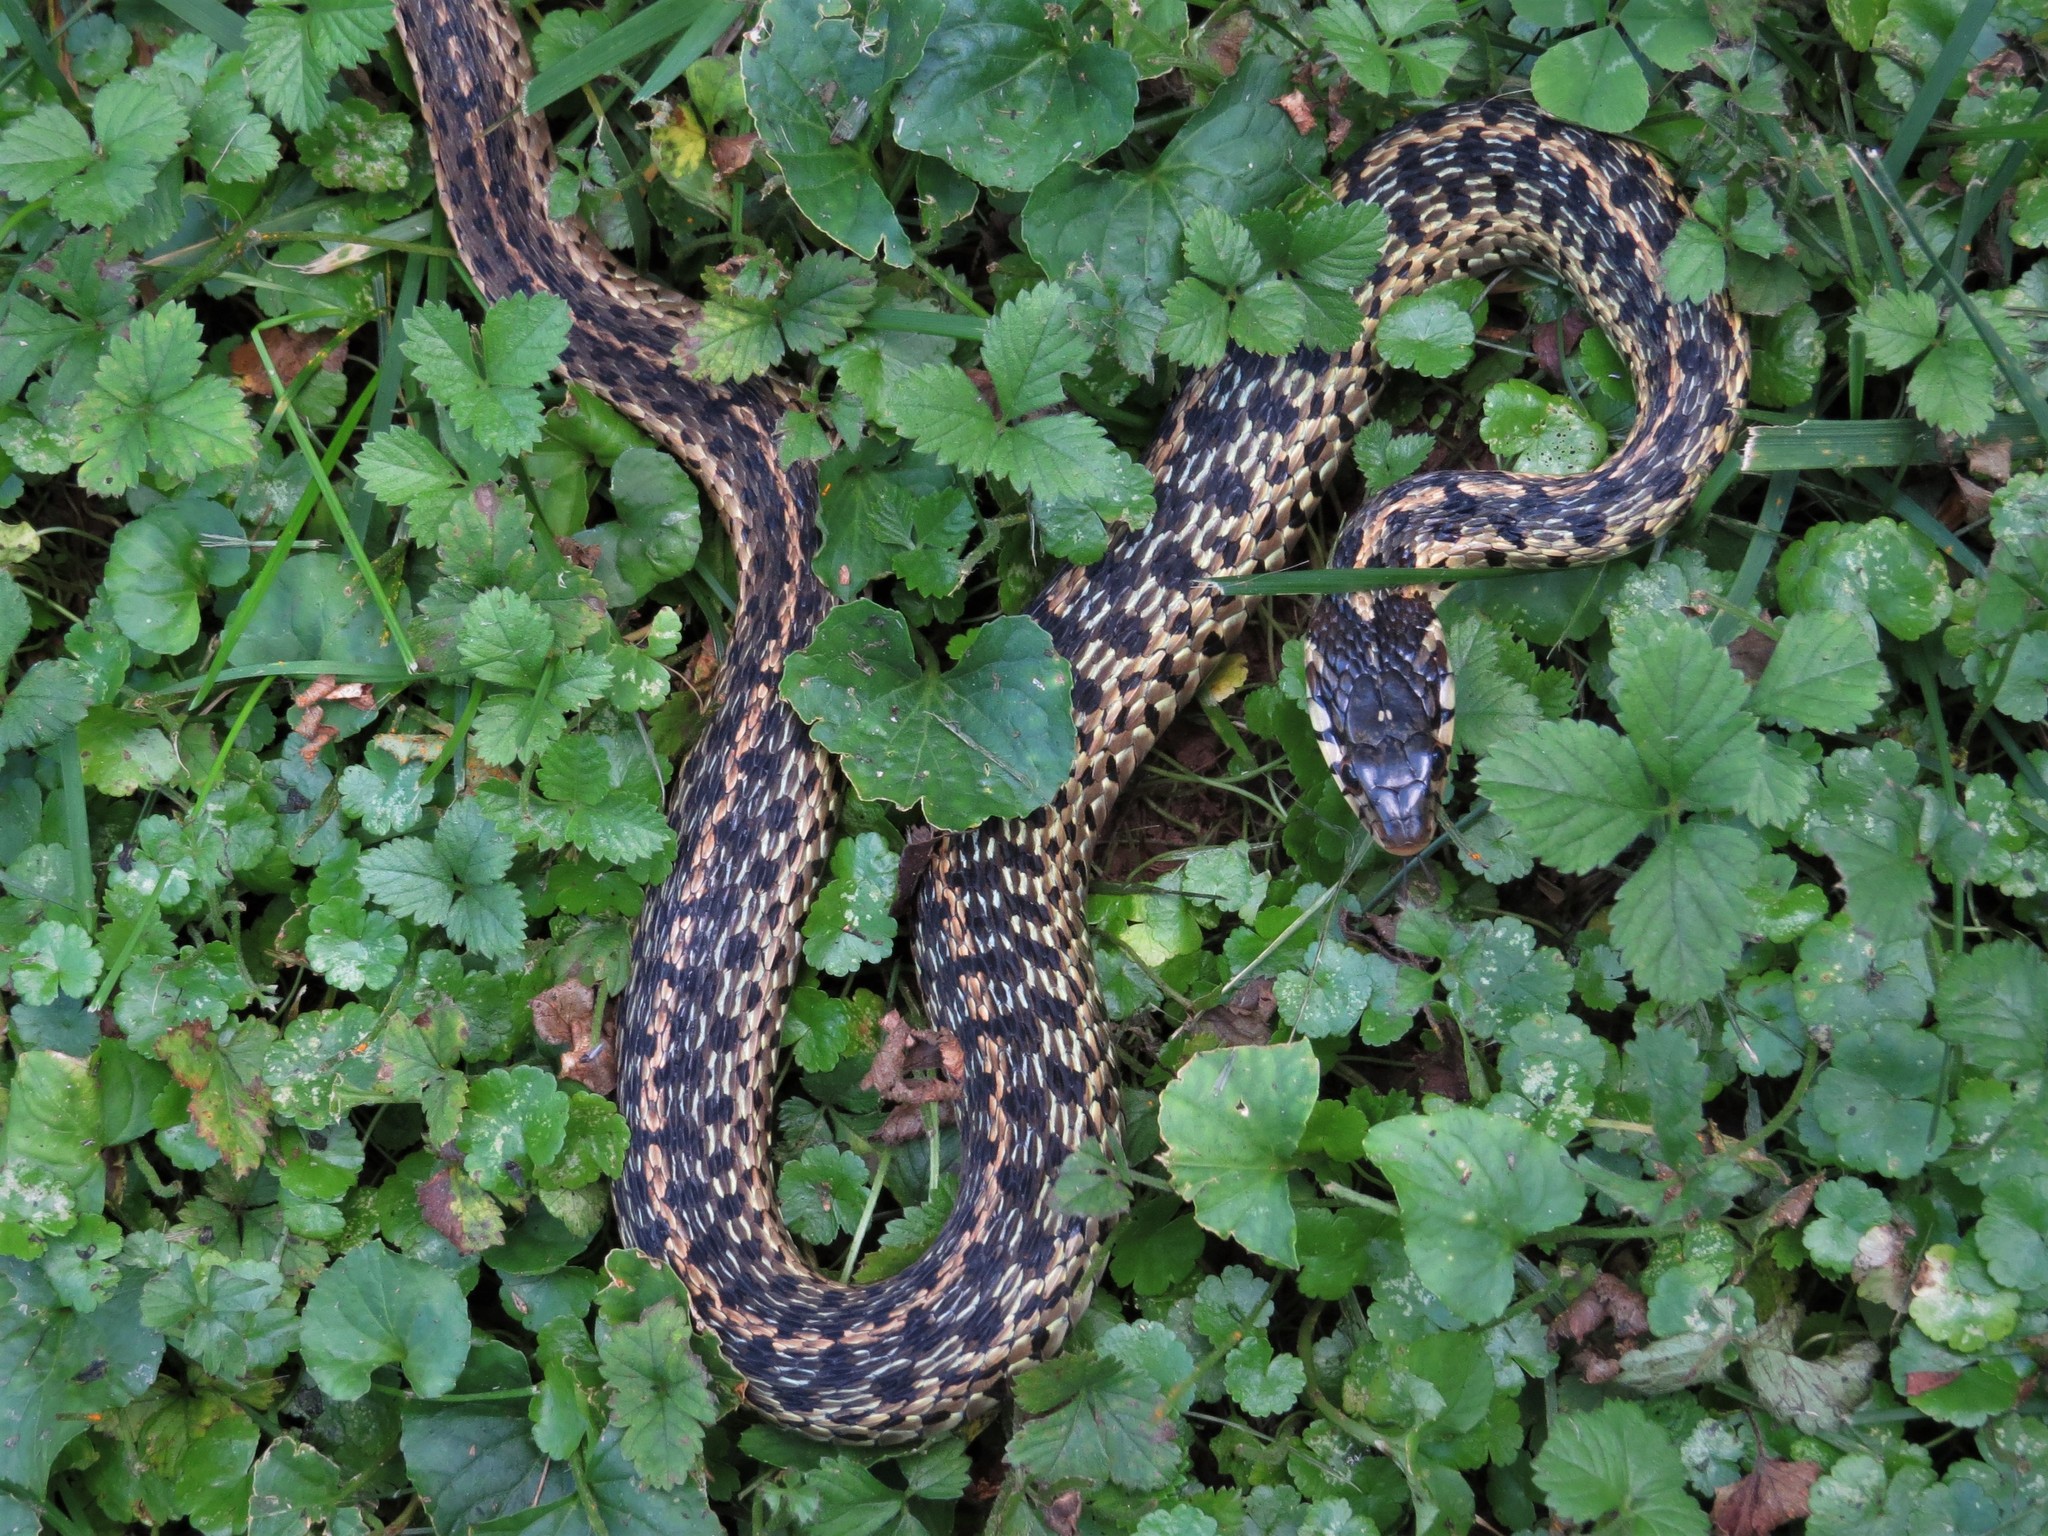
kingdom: Animalia
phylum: Chordata
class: Squamata
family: Colubridae
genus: Thamnophis
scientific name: Thamnophis sirtalis
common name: Common garter snake
